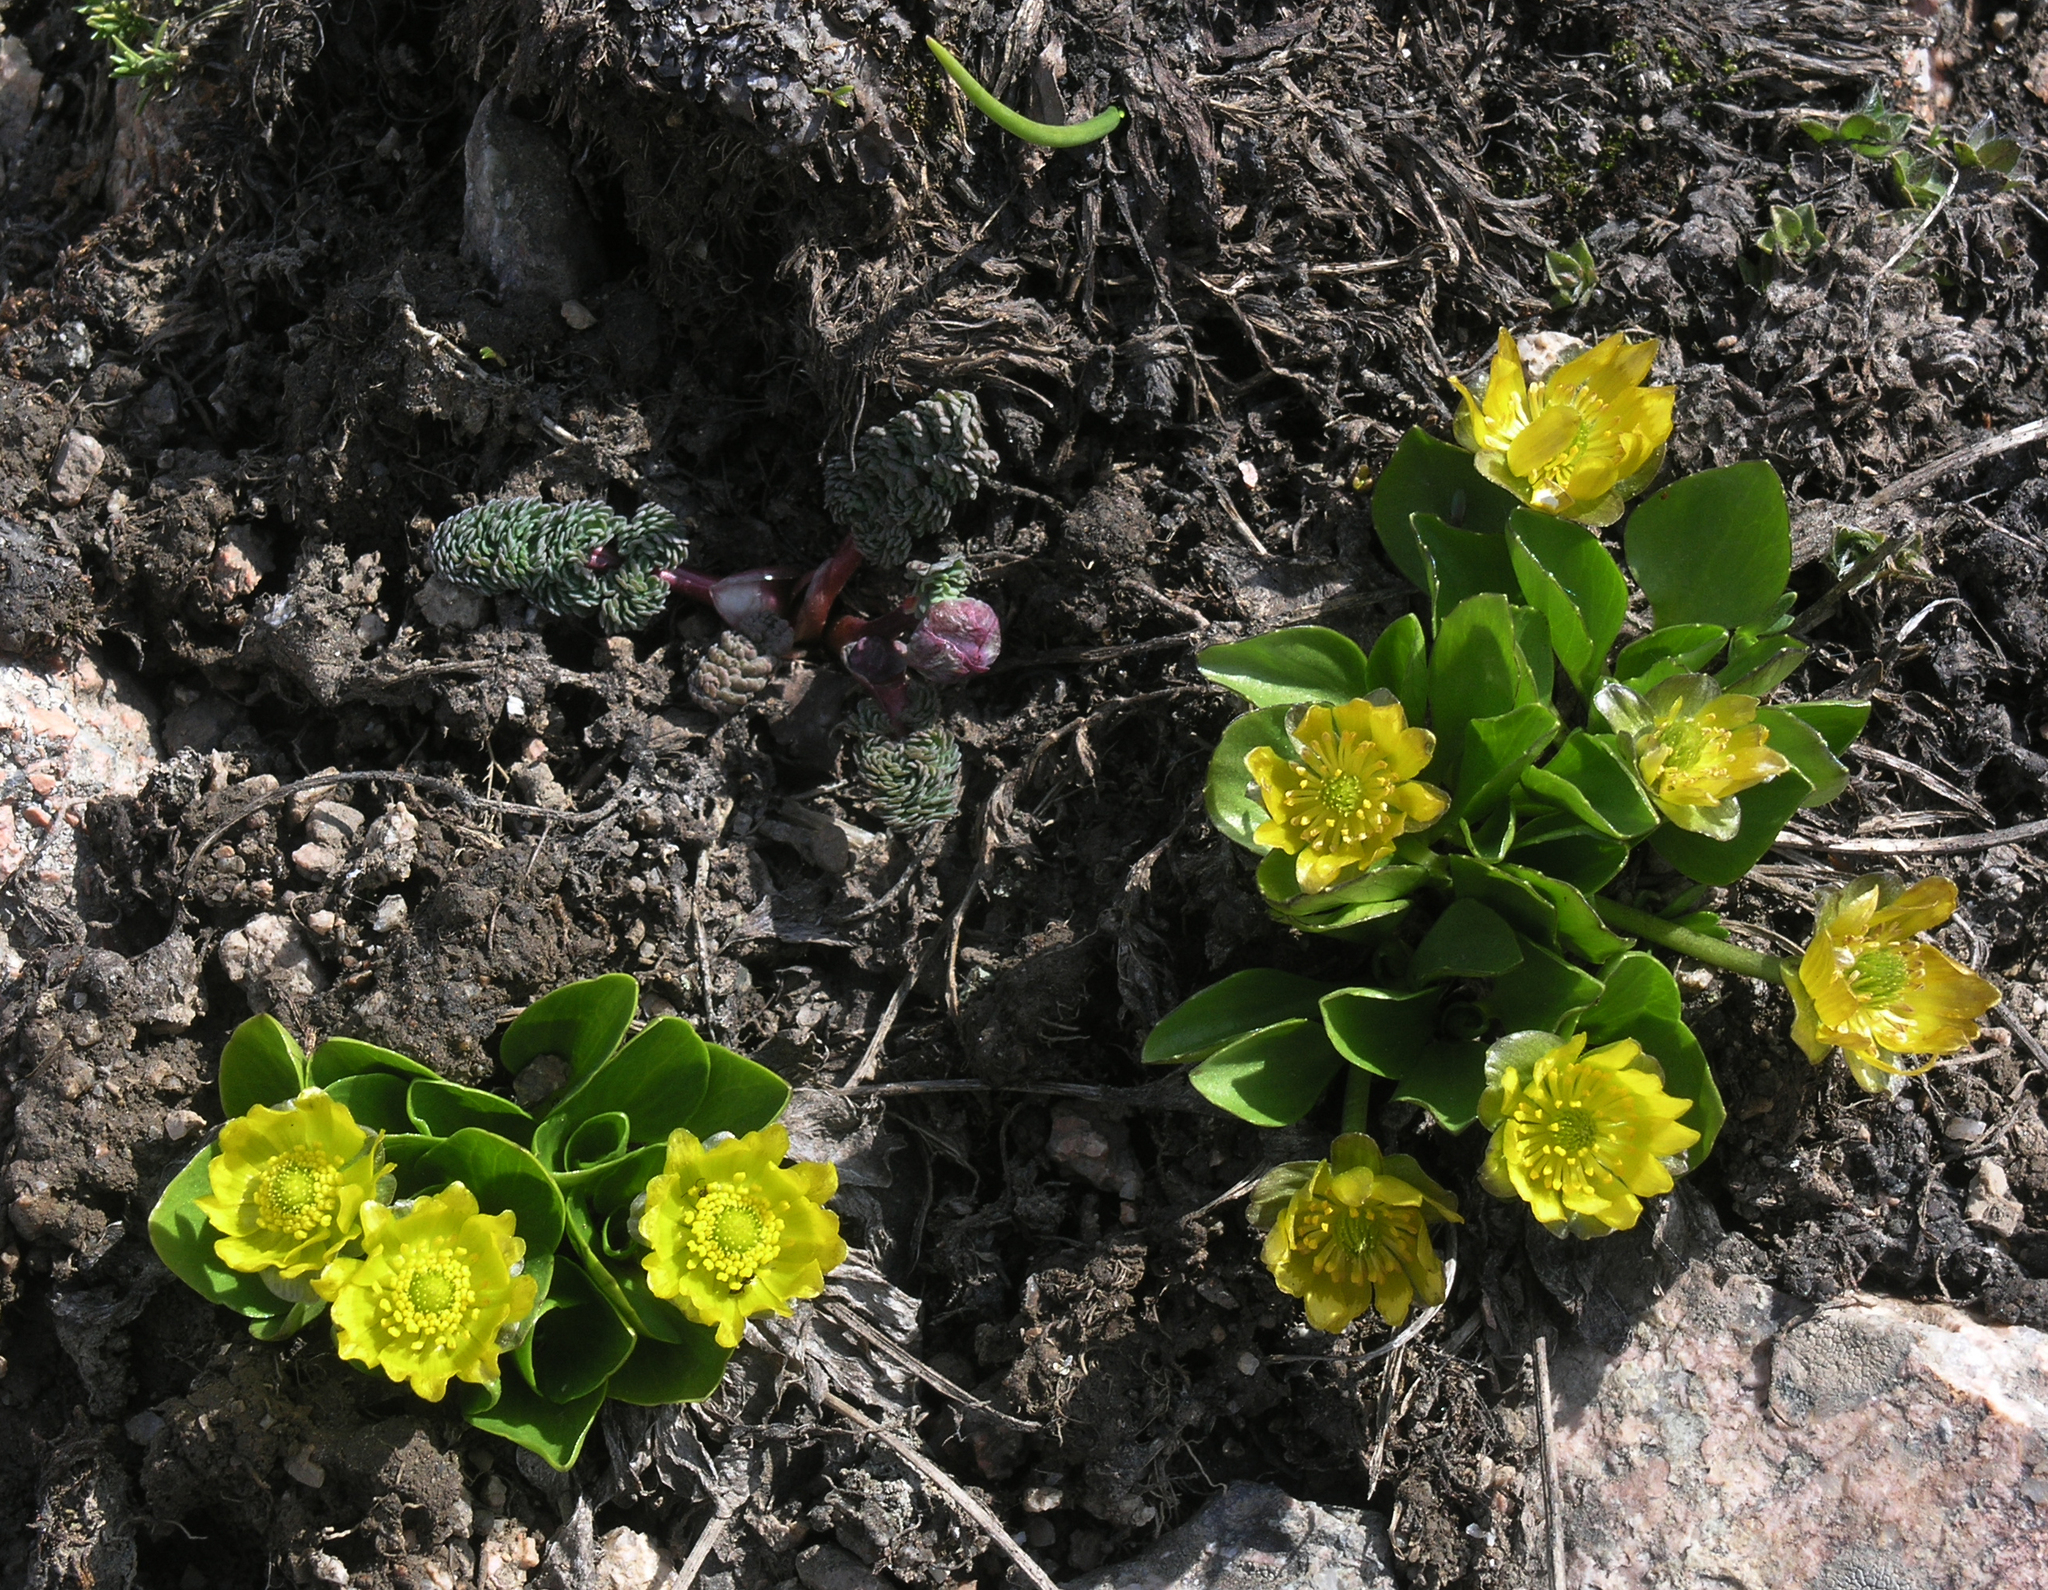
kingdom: Plantae
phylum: Tracheophyta
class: Magnoliopsida
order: Ranunculales
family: Ranunculaceae
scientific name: Ranunculaceae
